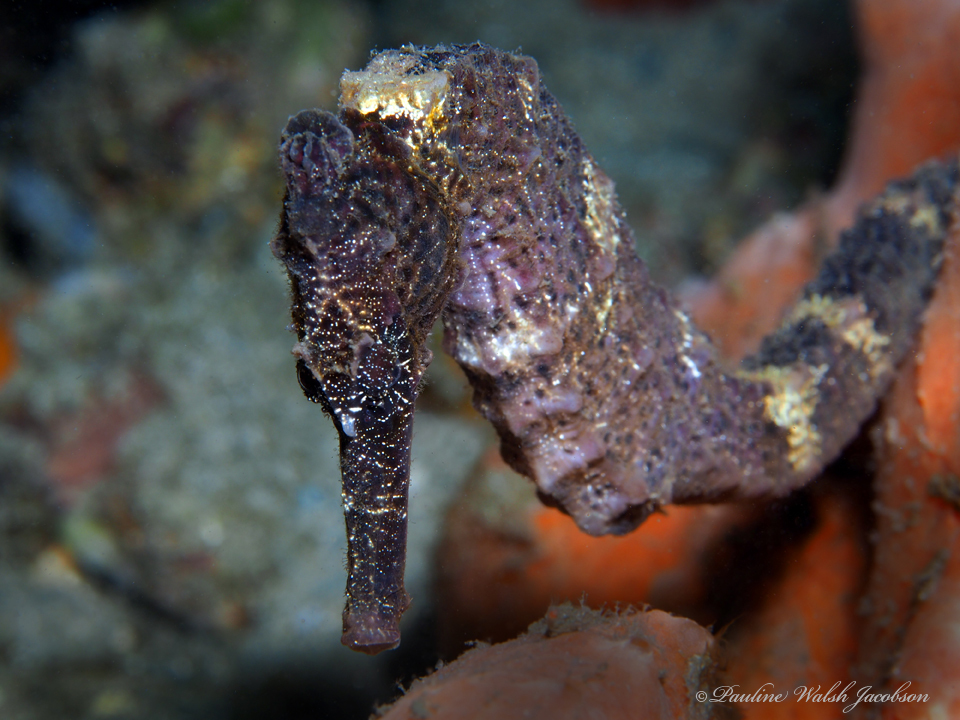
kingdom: Animalia
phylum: Chordata
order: Syngnathiformes
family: Syngnathidae
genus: Hippocampus
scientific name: Hippocampus reidi
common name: Slender seahorse
